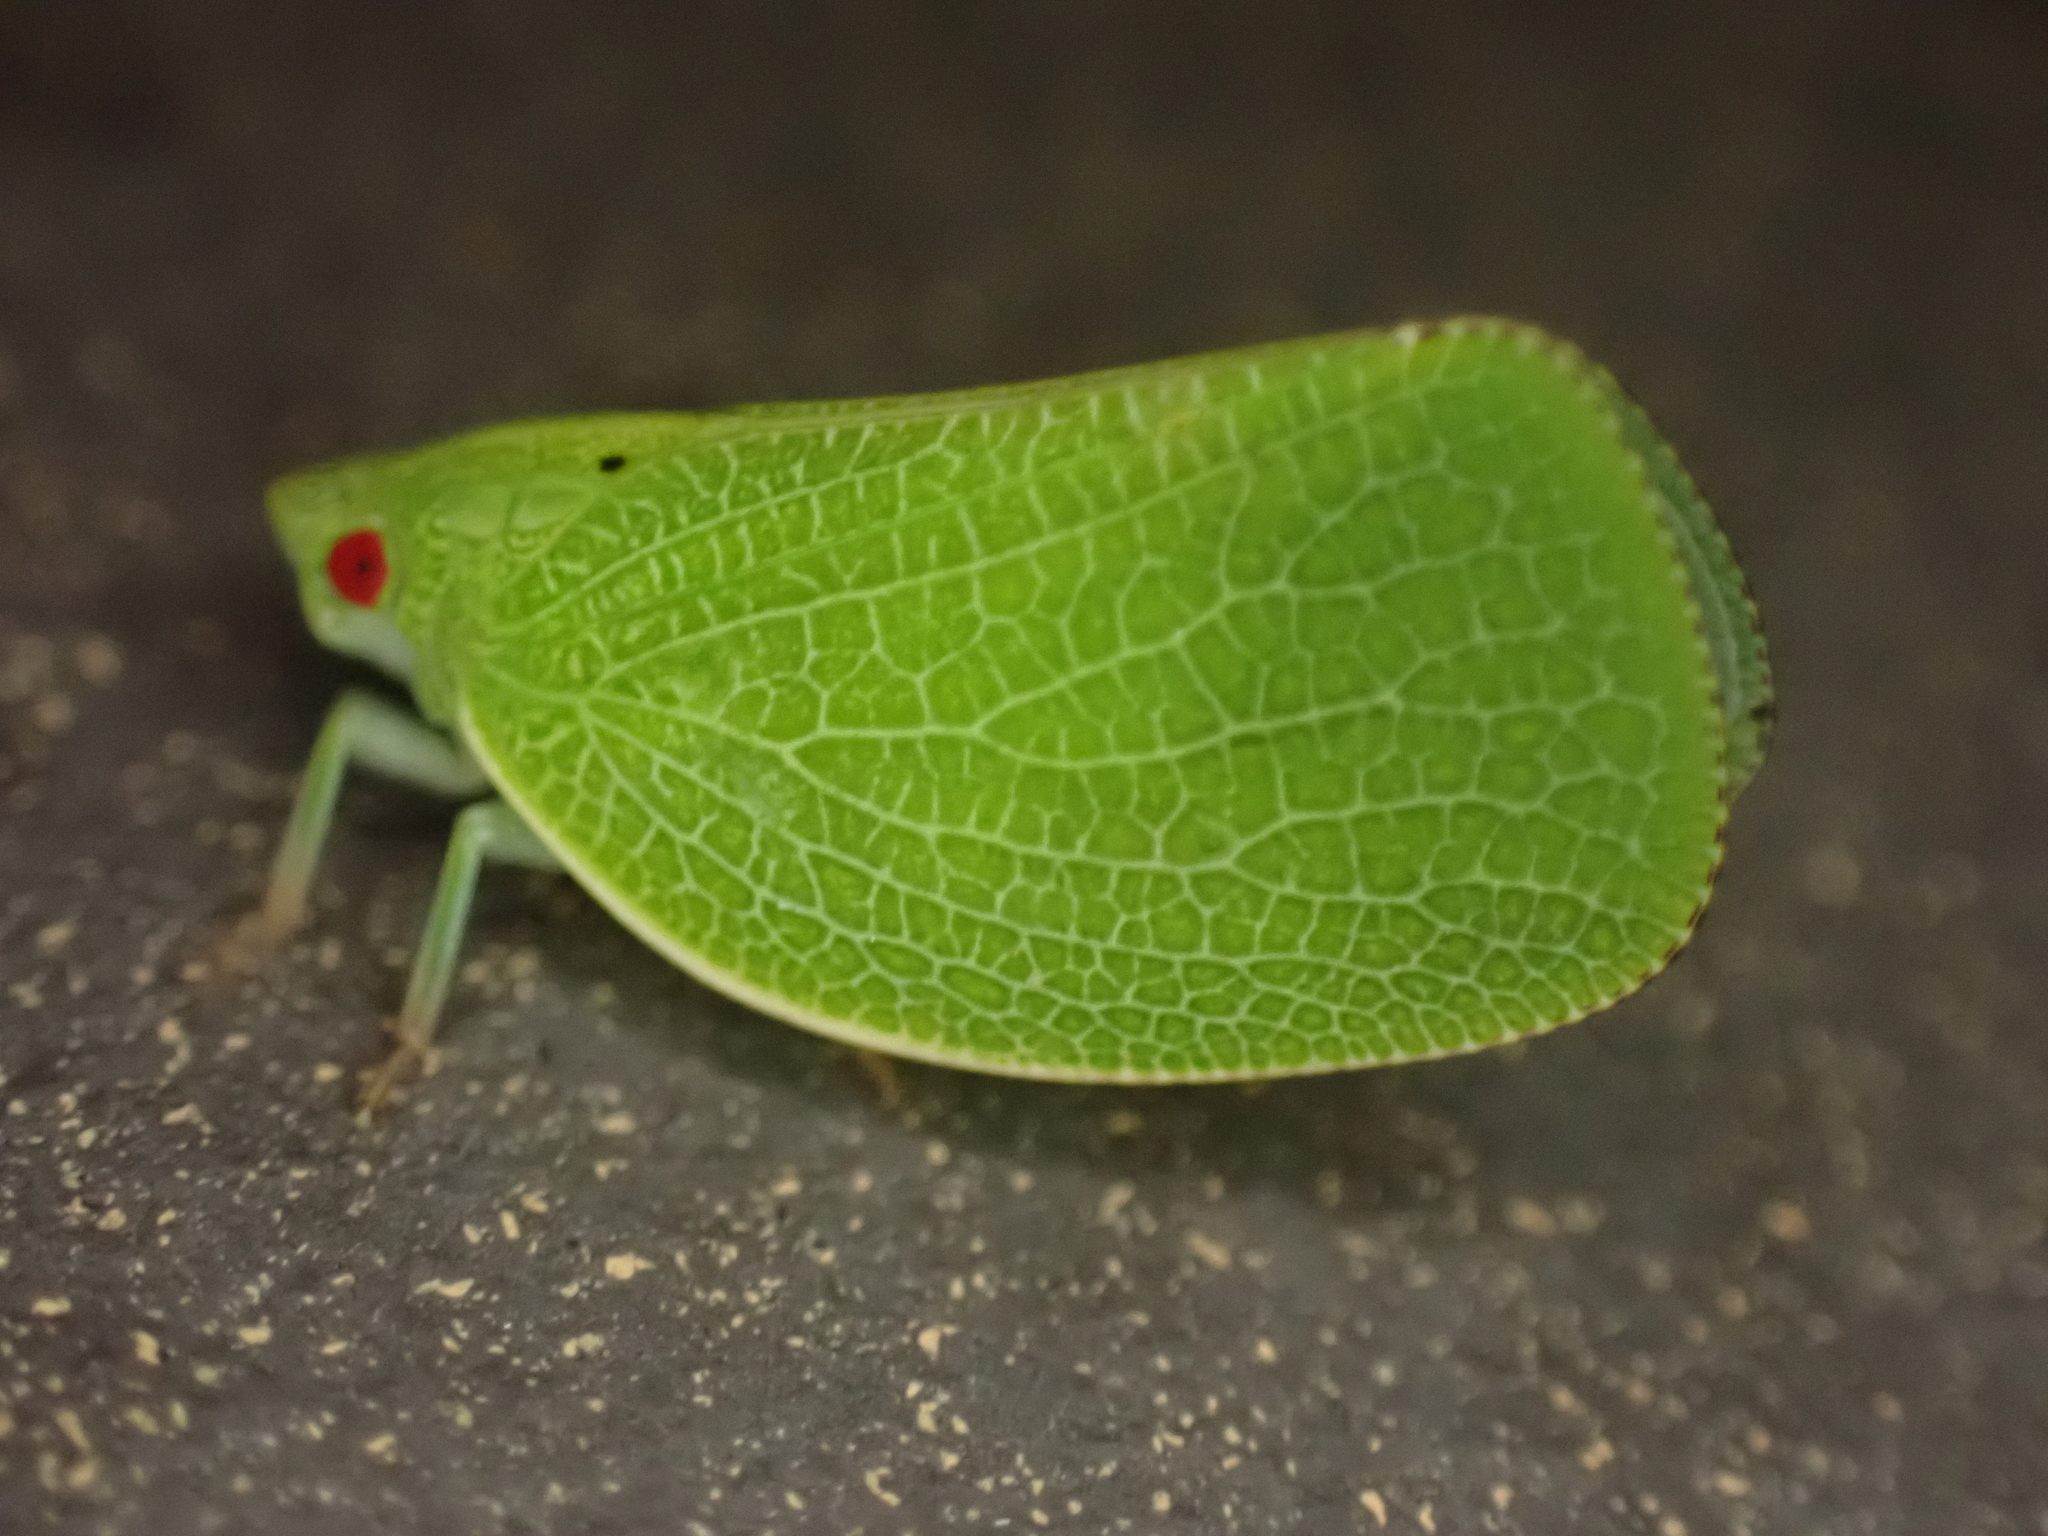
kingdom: Animalia
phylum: Arthropoda
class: Insecta
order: Hemiptera
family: Acanaloniidae
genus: Acanalonia
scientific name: Acanalonia conica
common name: Green cone-headed planthopper
